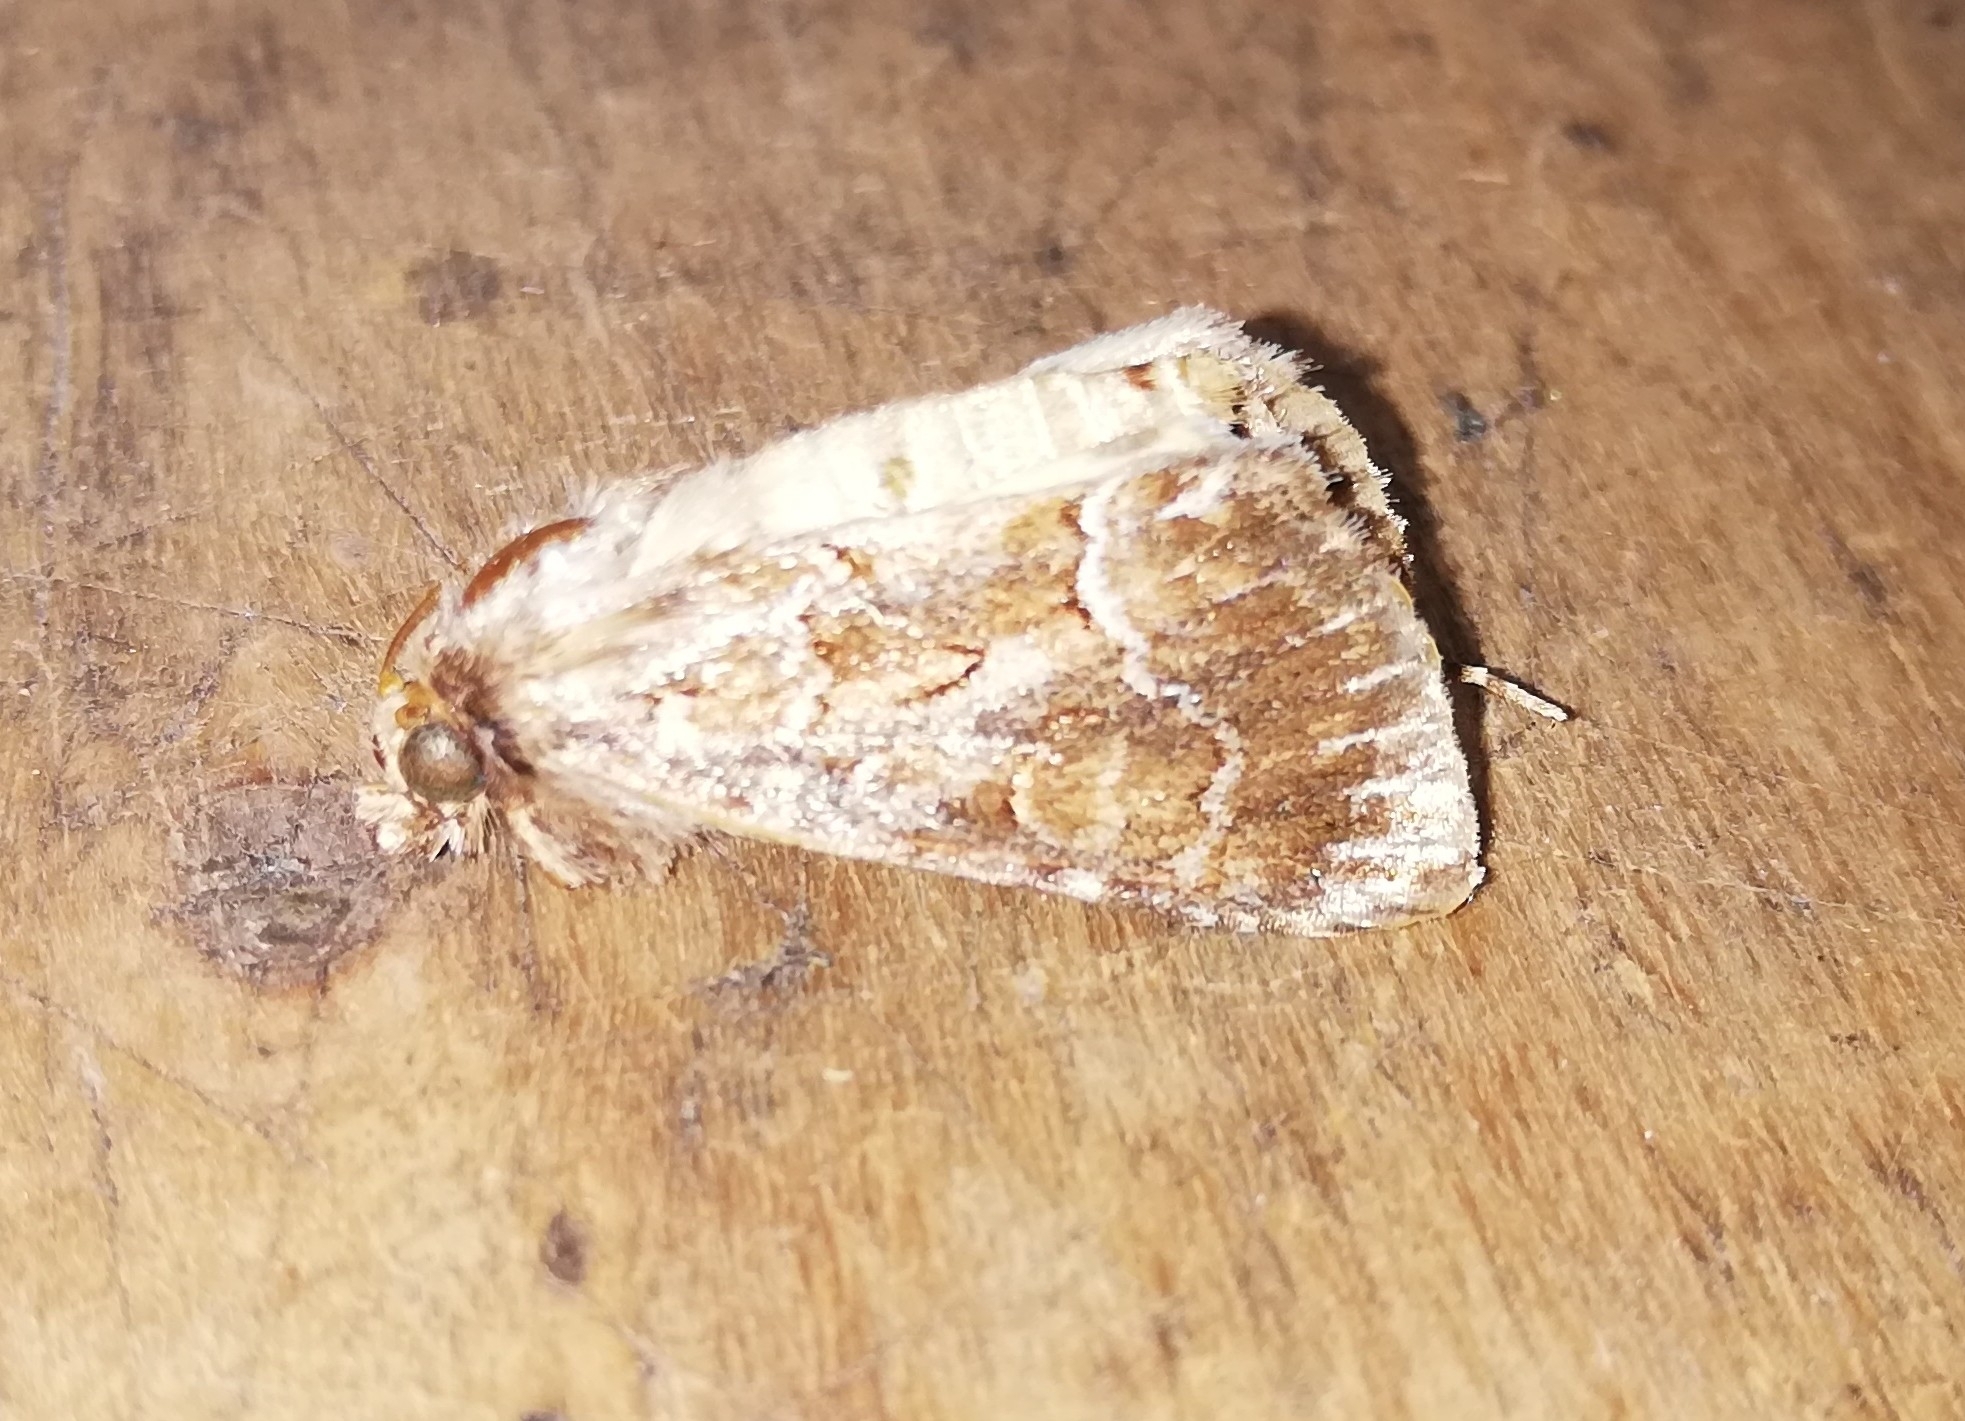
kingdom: Animalia
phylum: Arthropoda
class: Insecta
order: Lepidoptera
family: Noctuidae
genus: Thalpophila
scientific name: Thalpophila matura
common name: Straw underwing
